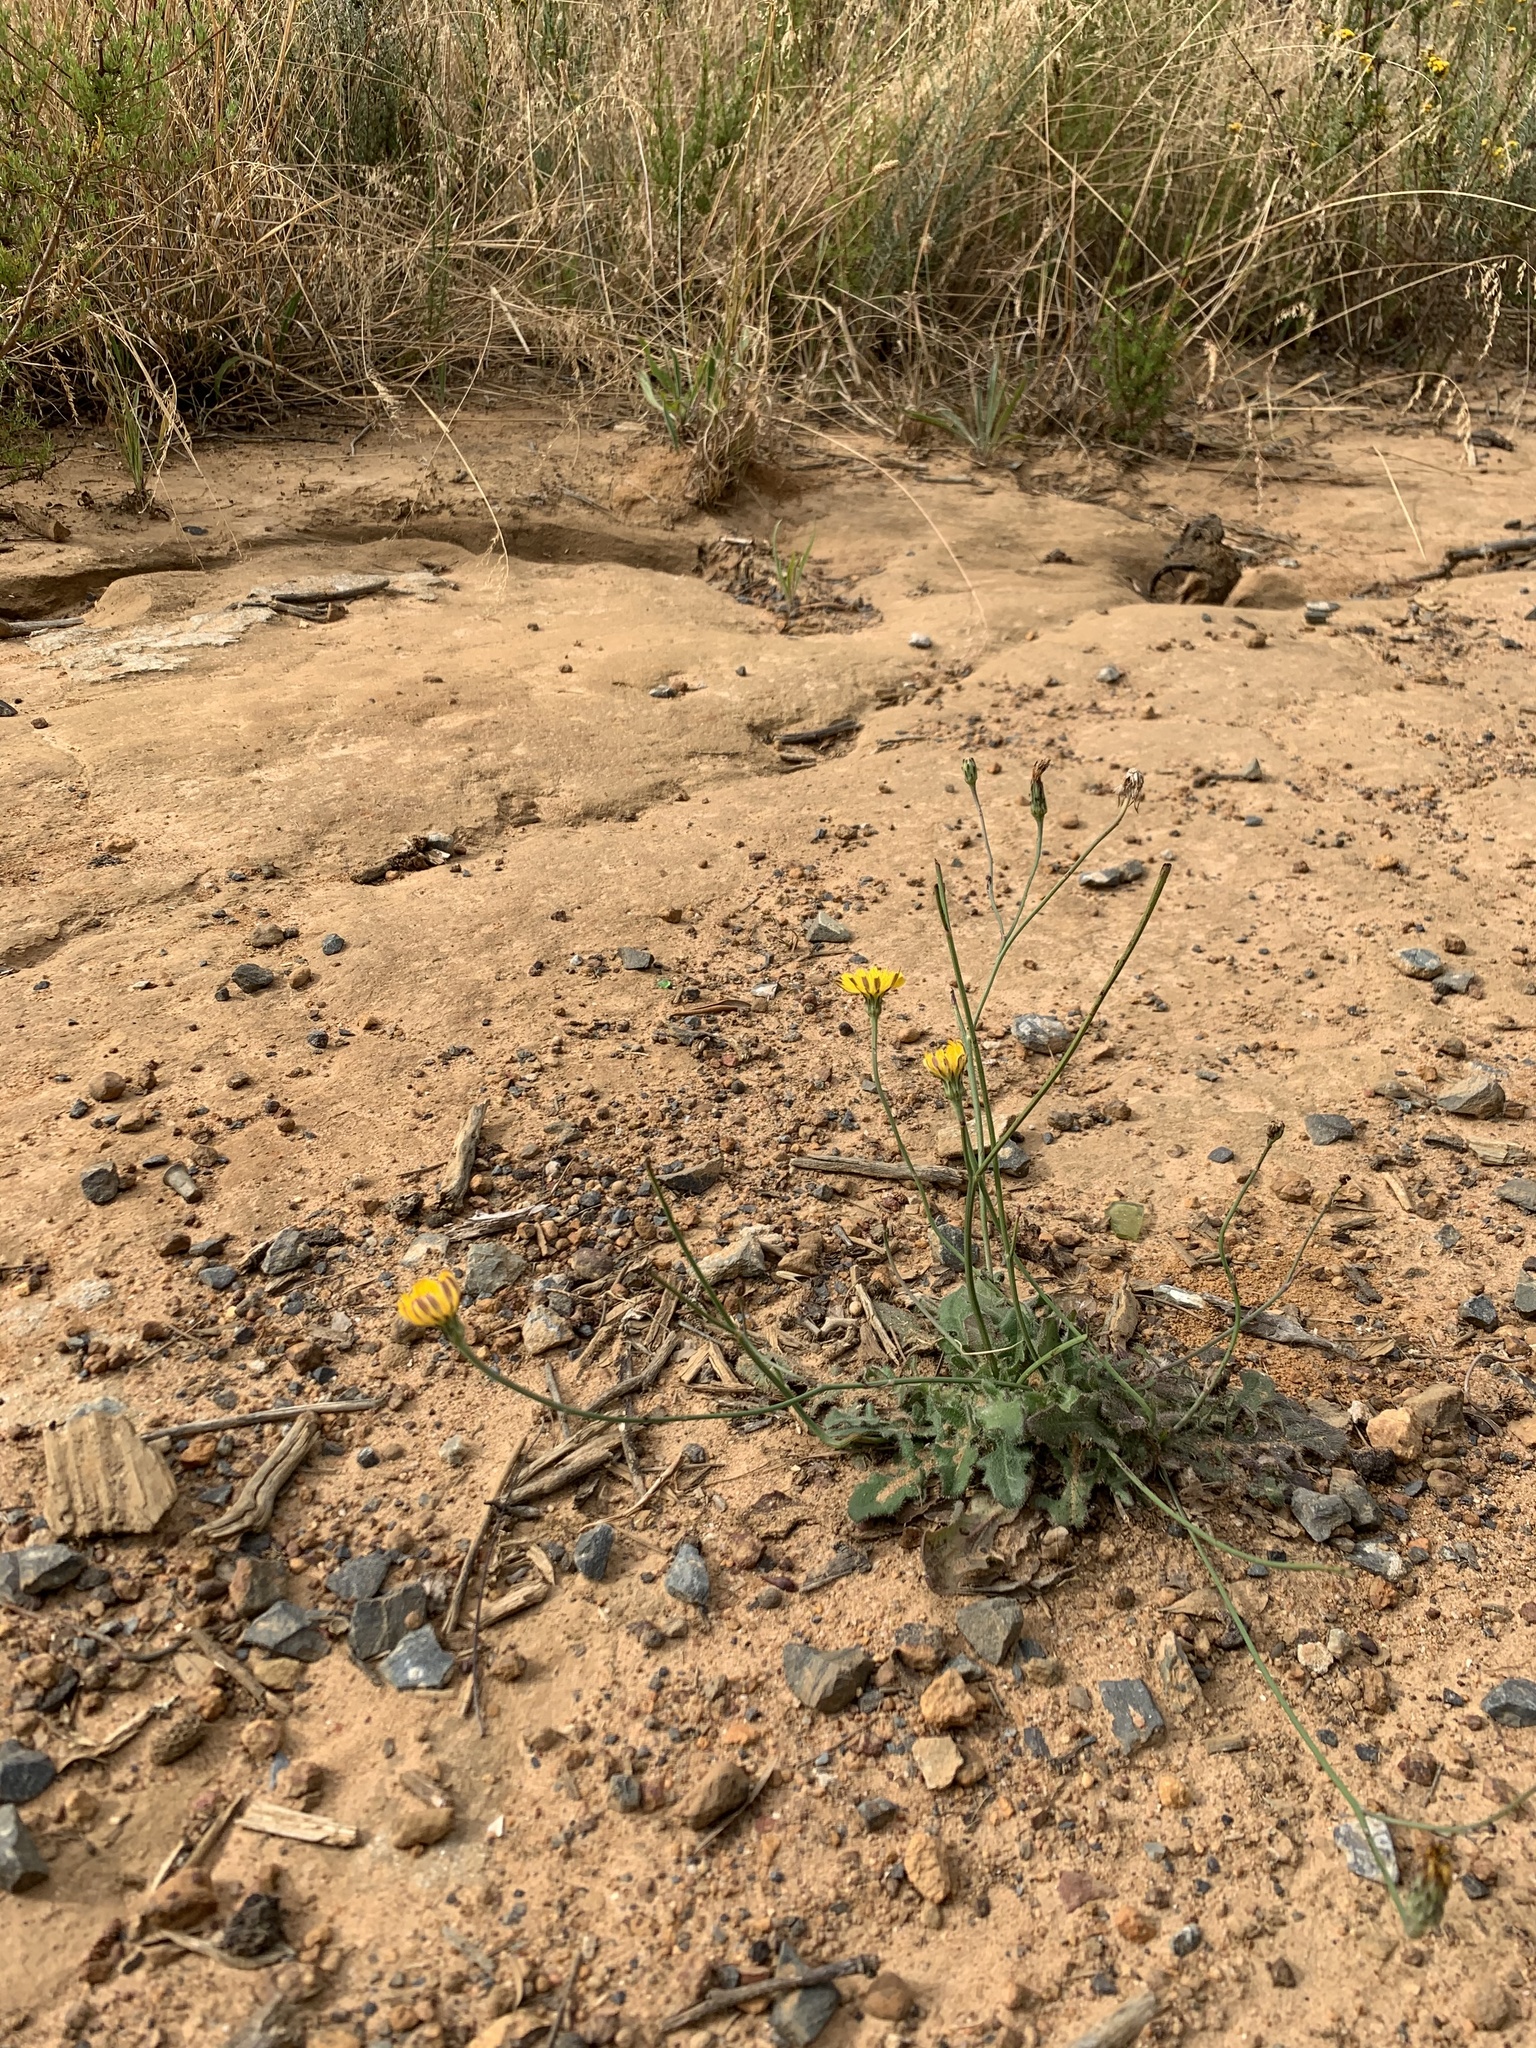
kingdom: Plantae
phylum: Tracheophyta
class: Magnoliopsida
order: Asterales
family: Asteraceae
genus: Hypochaeris
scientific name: Hypochaeris radicata
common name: Flatweed
